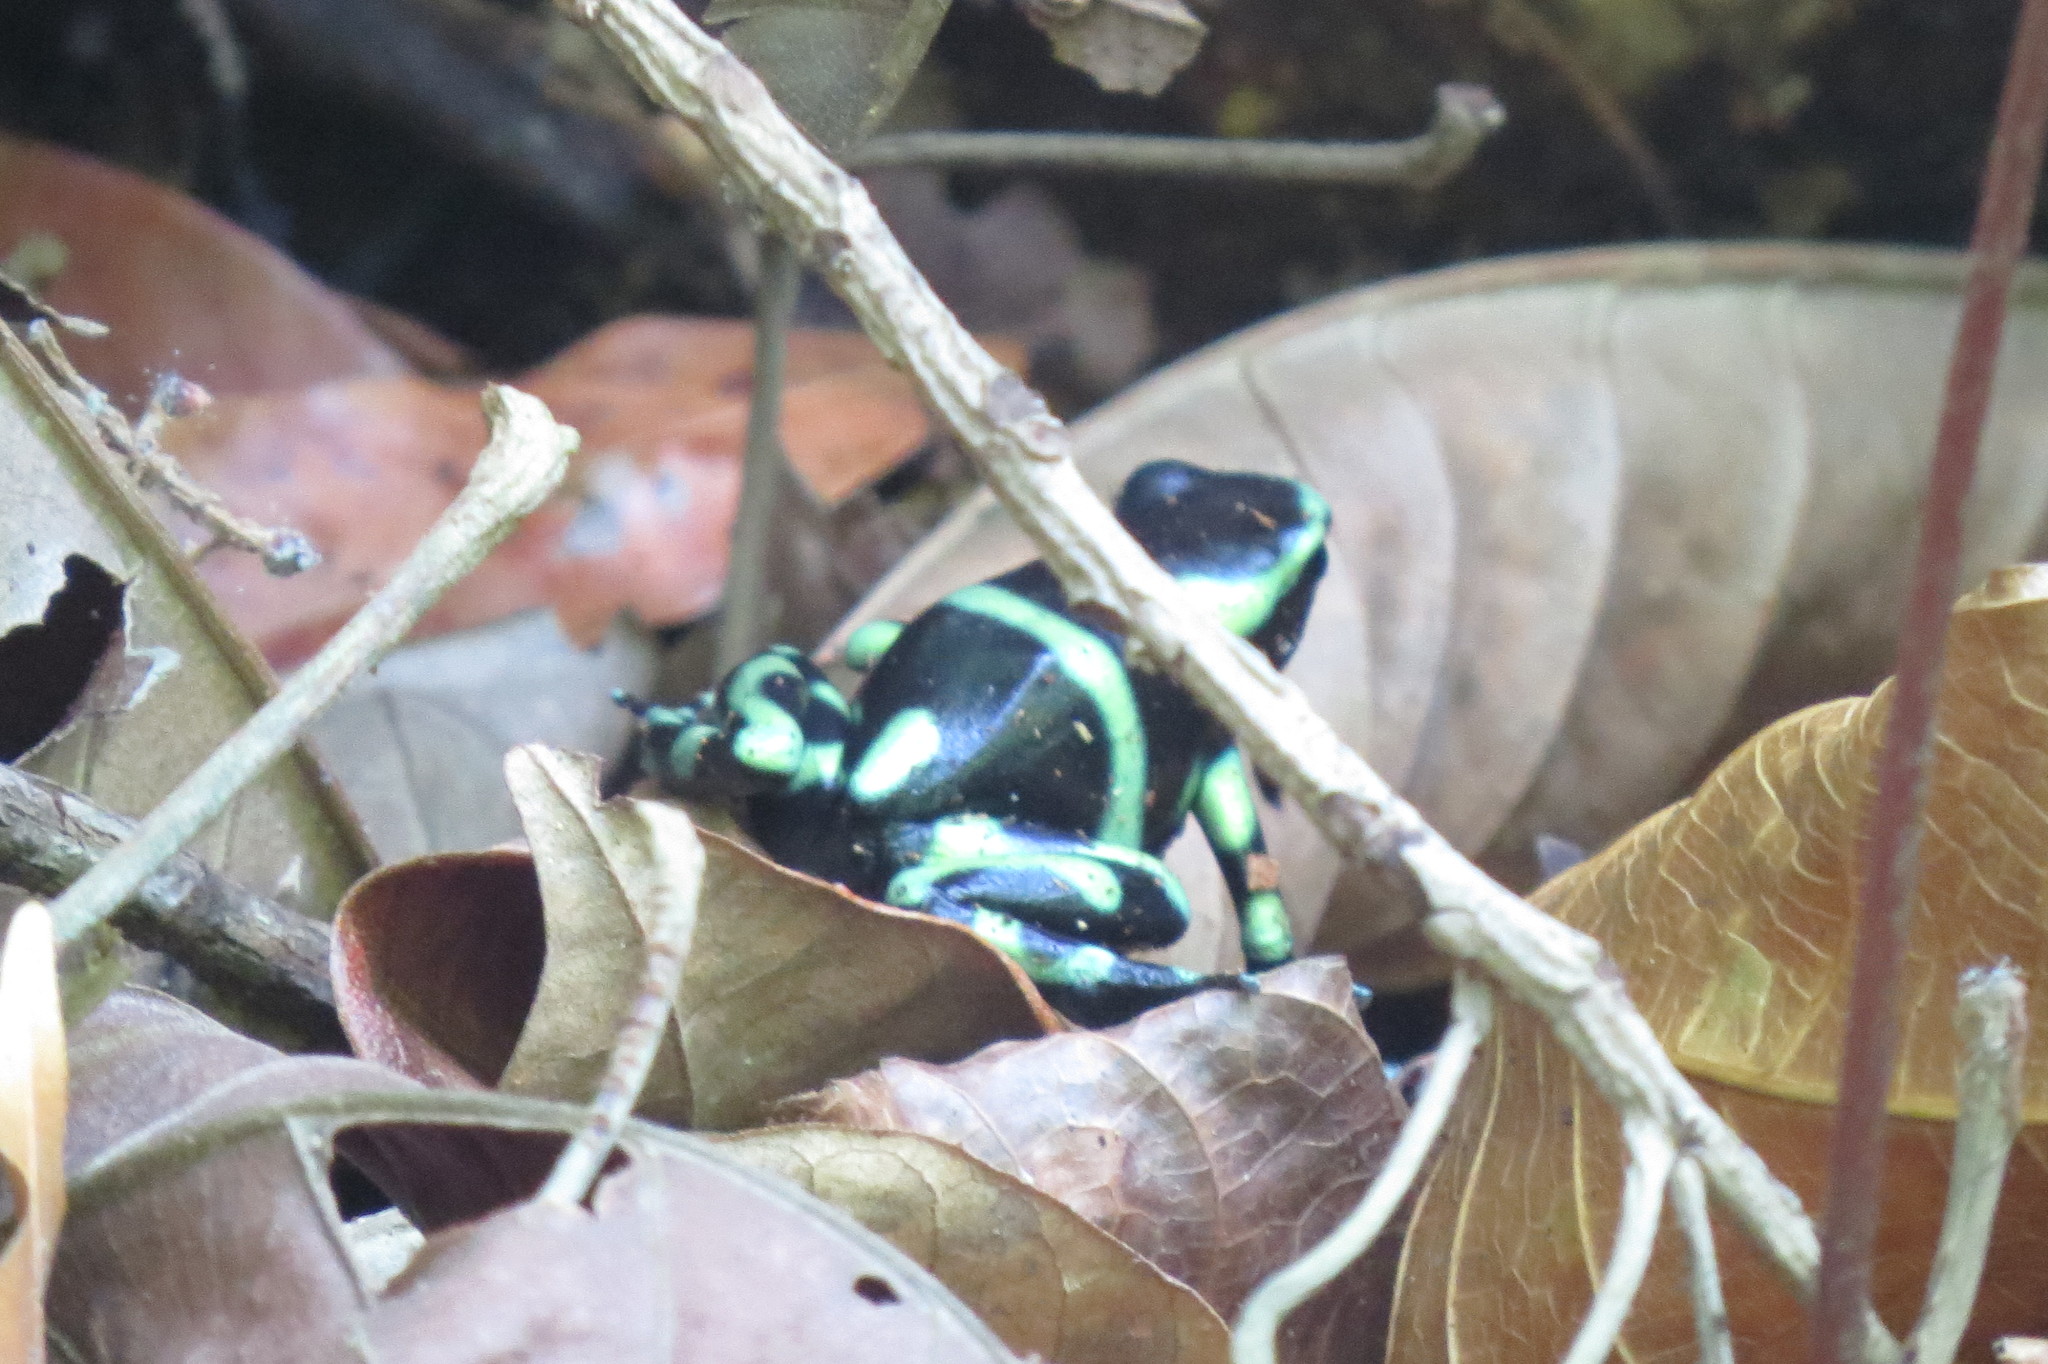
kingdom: Animalia
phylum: Chordata
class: Amphibia
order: Anura
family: Dendrobatidae
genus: Dendrobates
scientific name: Dendrobates auratus
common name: Green and black poison dart frog
